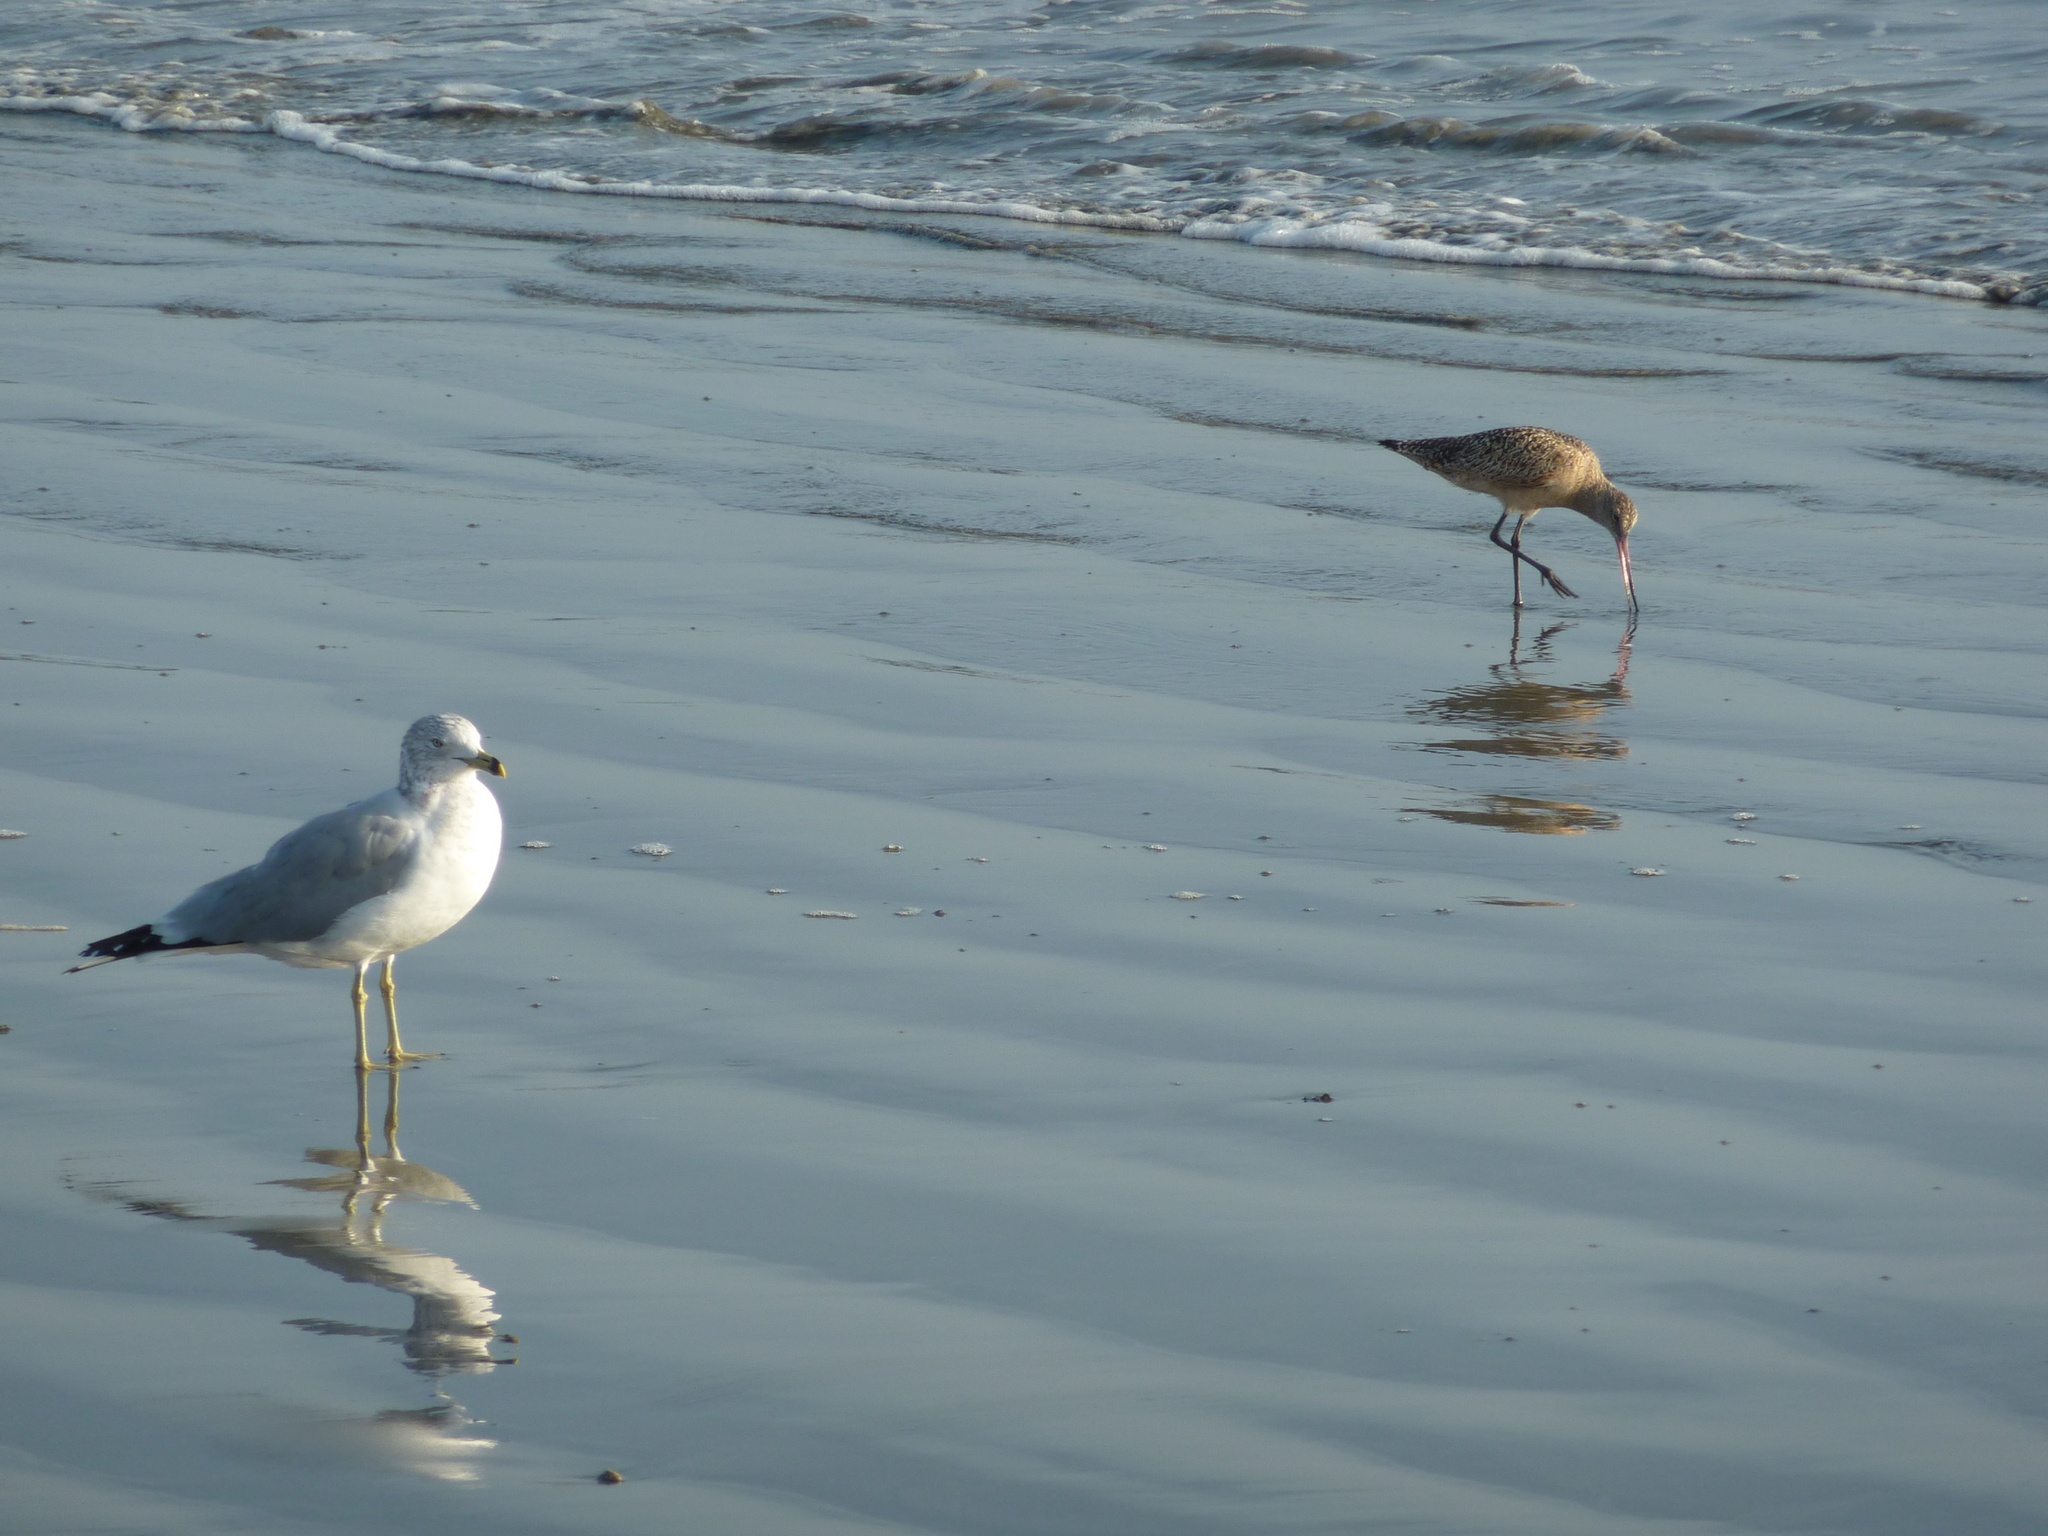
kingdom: Animalia
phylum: Chordata
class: Aves
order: Charadriiformes
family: Laridae
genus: Larus
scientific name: Larus delawarensis
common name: Ring-billed gull
